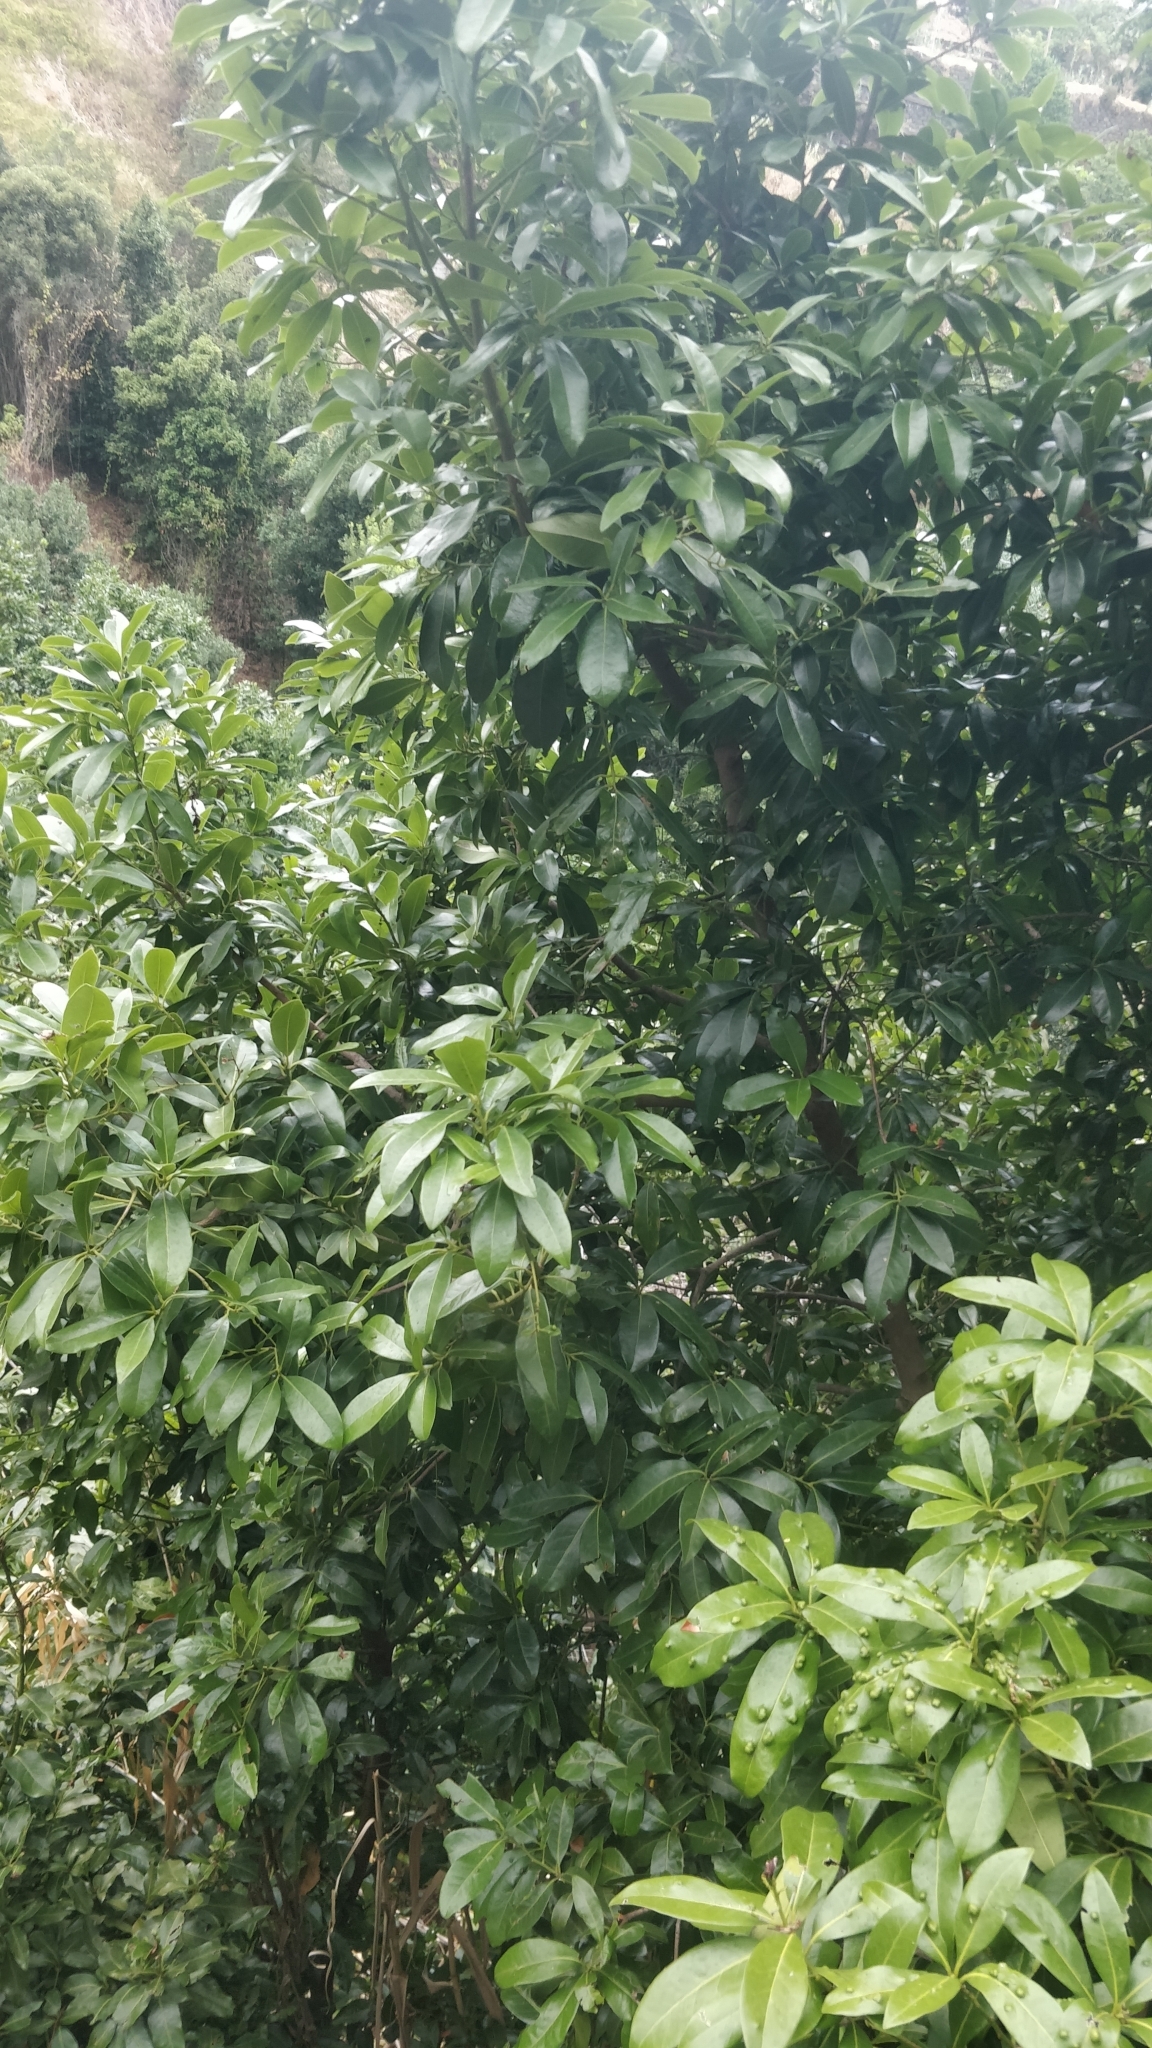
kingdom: Plantae
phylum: Tracheophyta
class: Magnoliopsida
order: Laurales
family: Lauraceae
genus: Apollonias
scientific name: Apollonias barbujana
